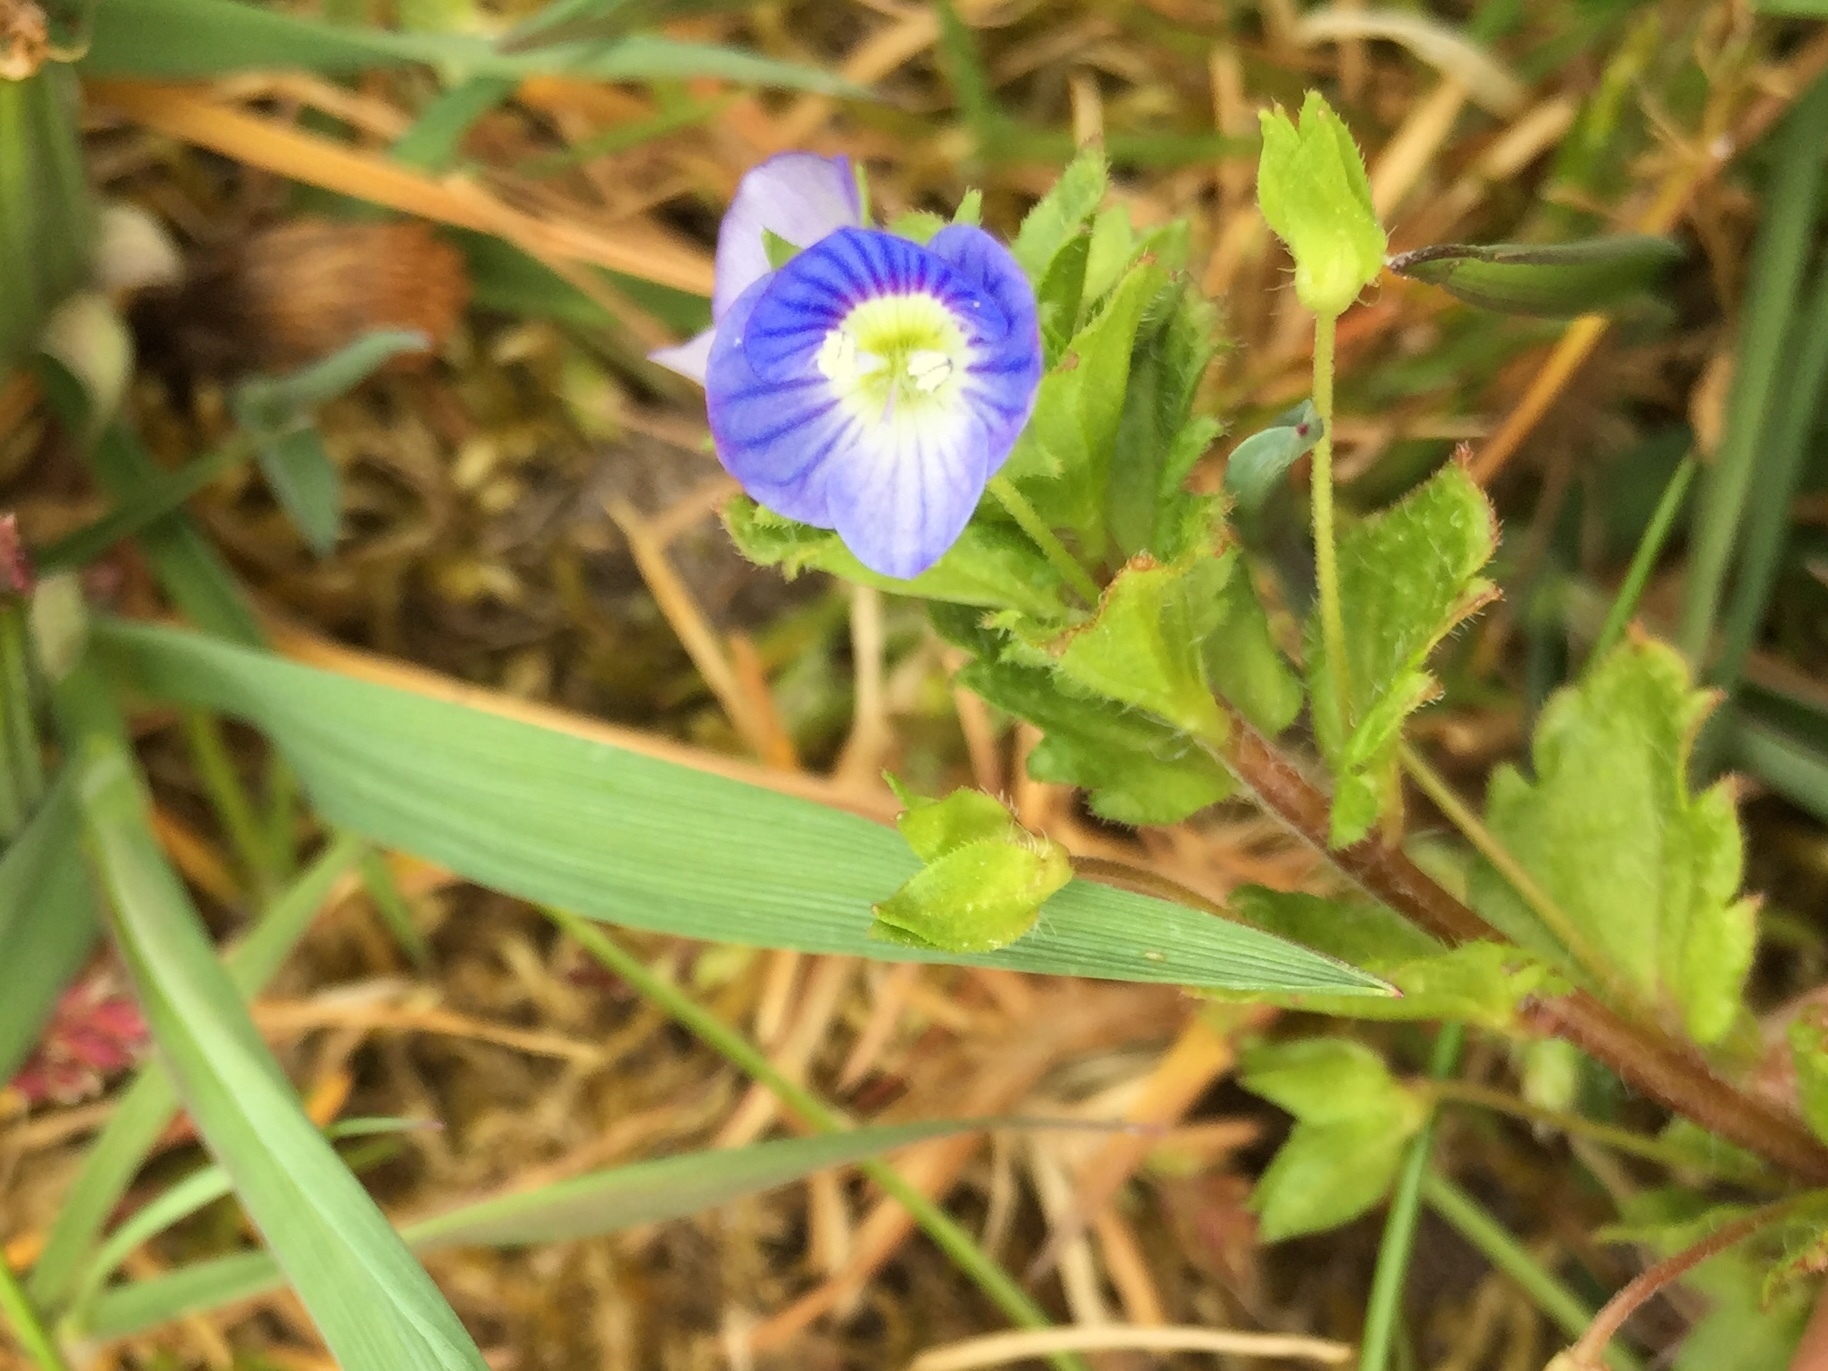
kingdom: Plantae
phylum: Tracheophyta
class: Magnoliopsida
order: Lamiales
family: Plantaginaceae
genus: Veronica
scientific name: Veronica persica
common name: Common field-speedwell
